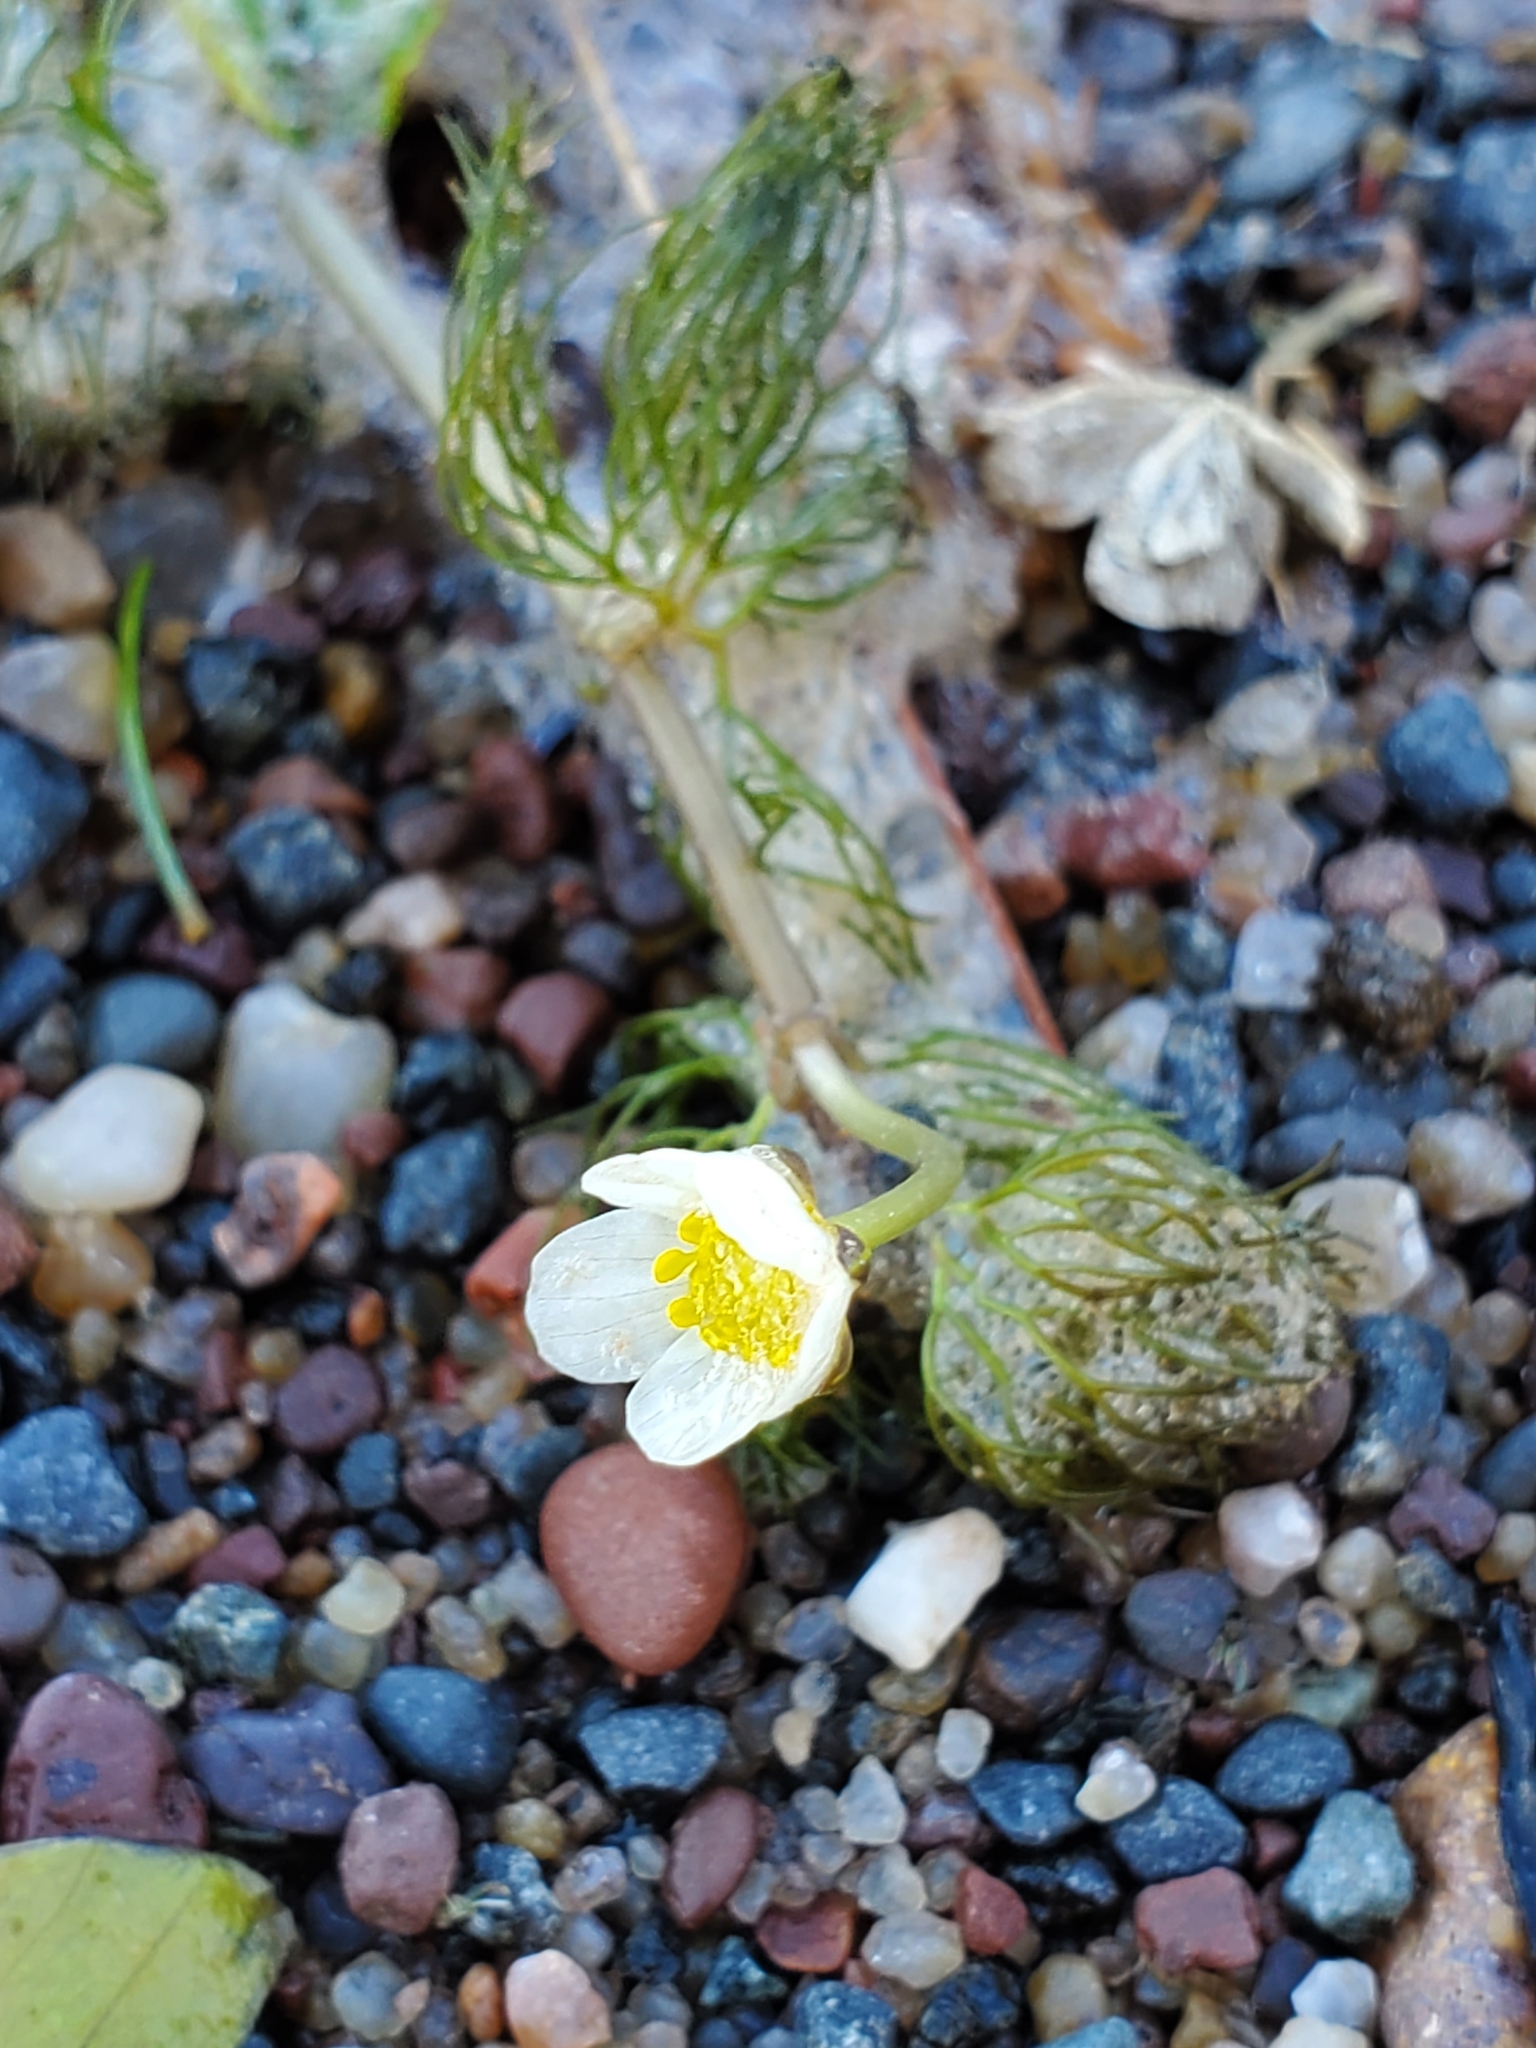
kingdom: Plantae
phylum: Tracheophyta
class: Magnoliopsida
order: Ranunculales
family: Ranunculaceae
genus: Ranunculus
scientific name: Ranunculus aquatilis
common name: Common water-crowfoot
